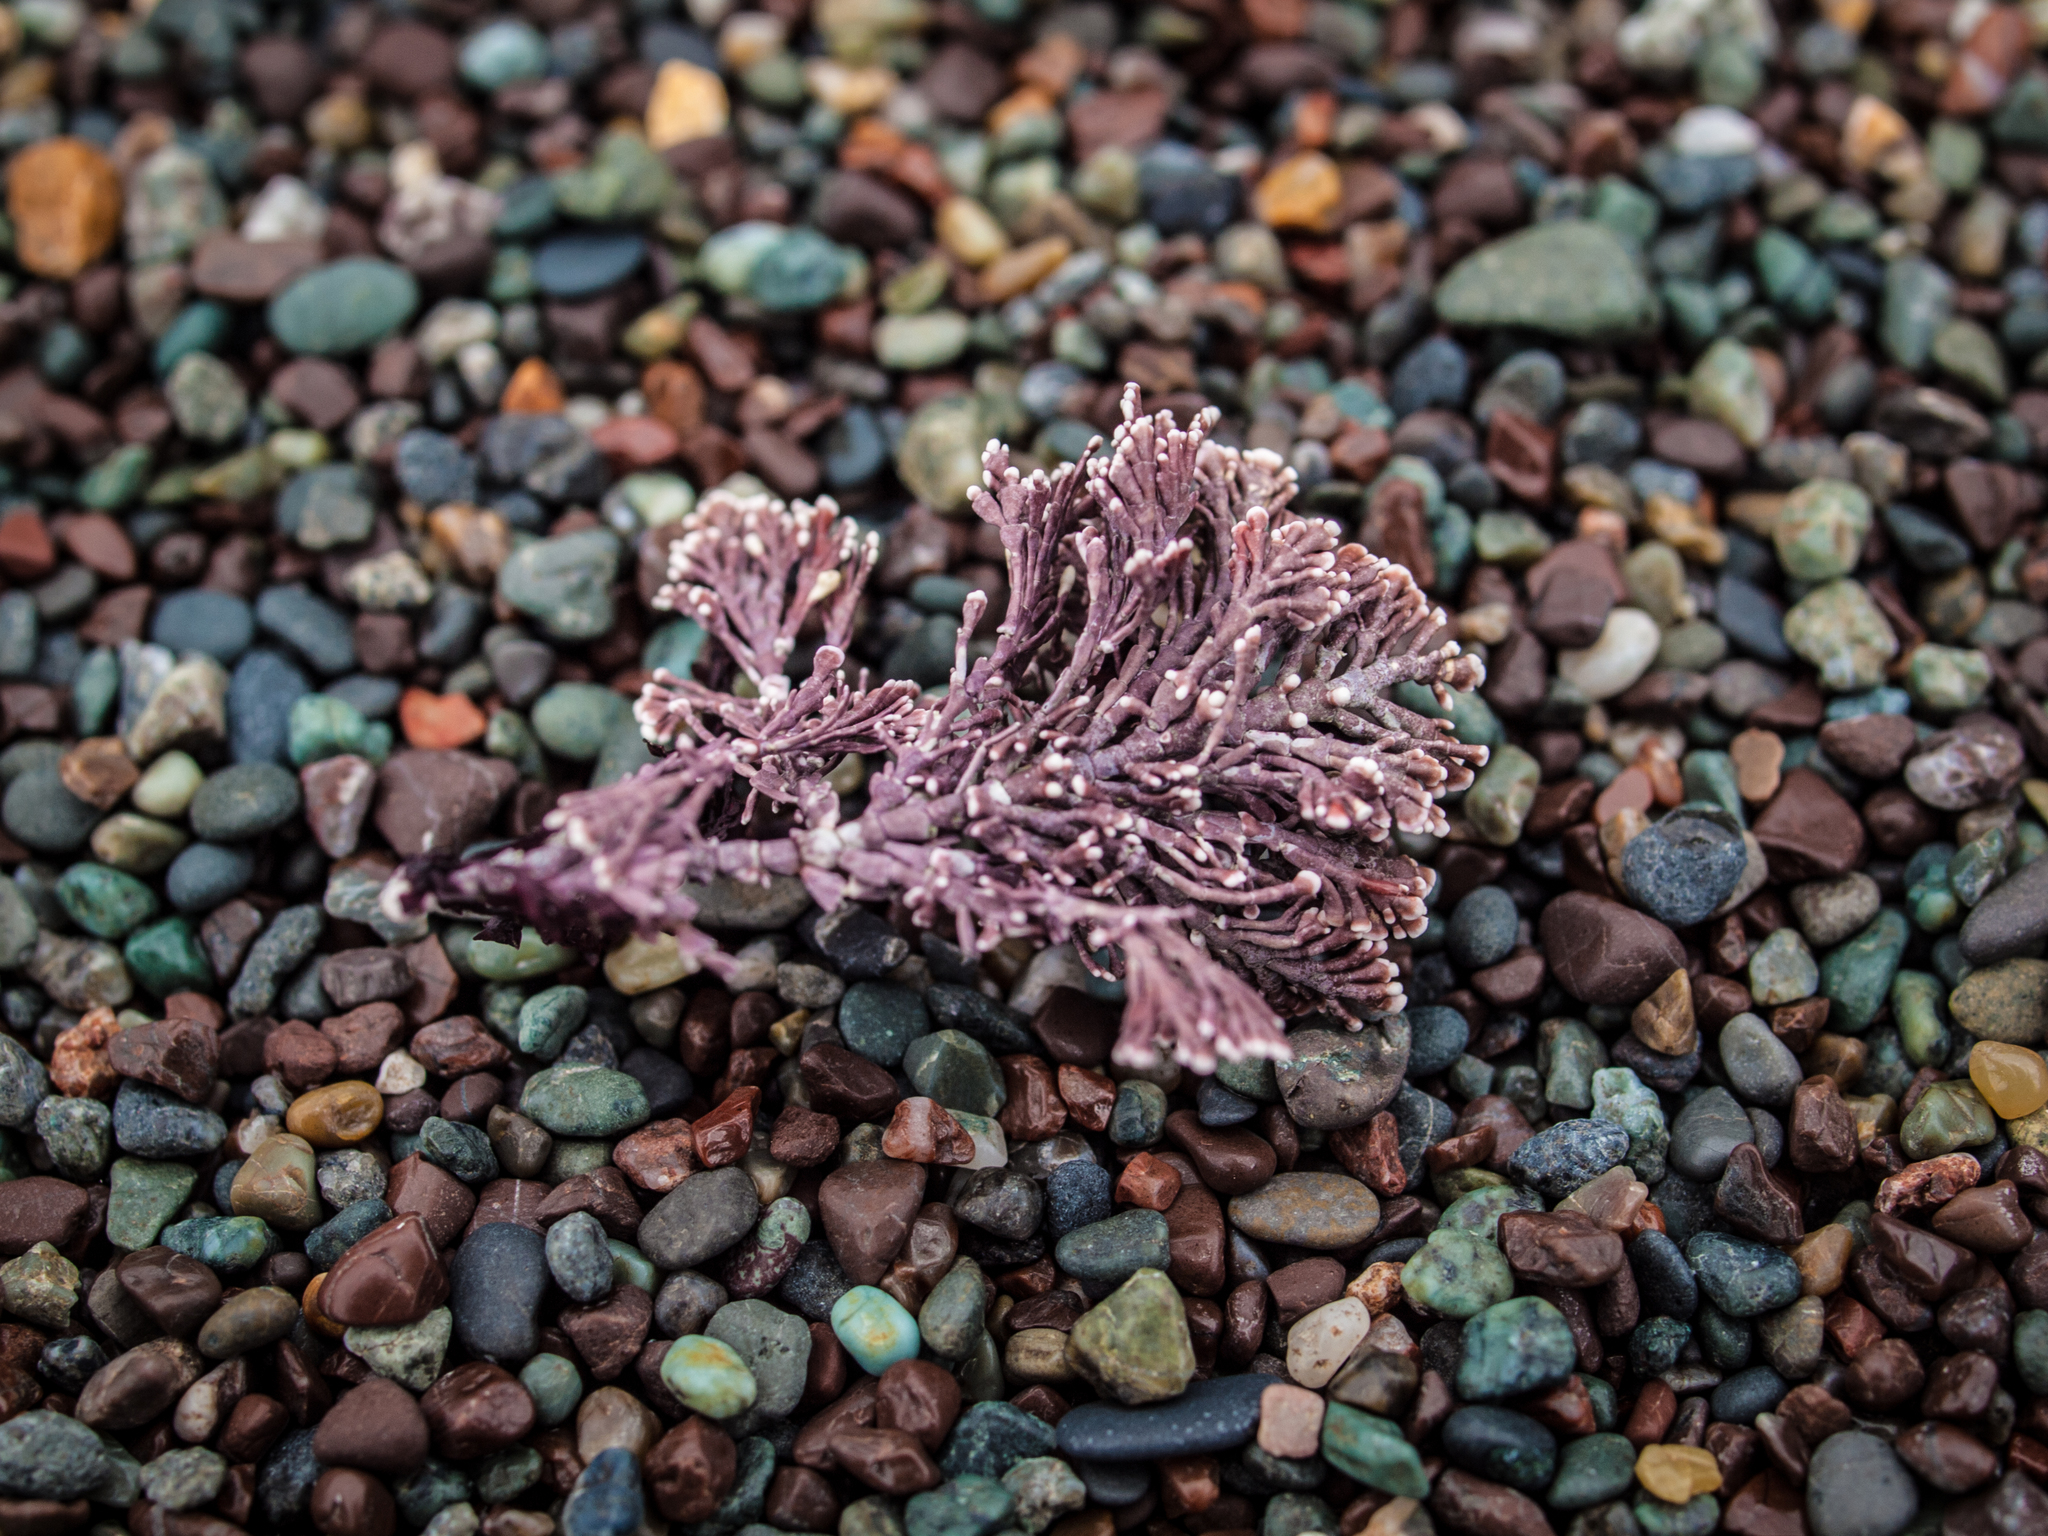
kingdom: Plantae
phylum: Rhodophyta
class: Florideophyceae
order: Corallinales
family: Corallinaceae
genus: Corallina
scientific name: Corallina vancouveriensis
